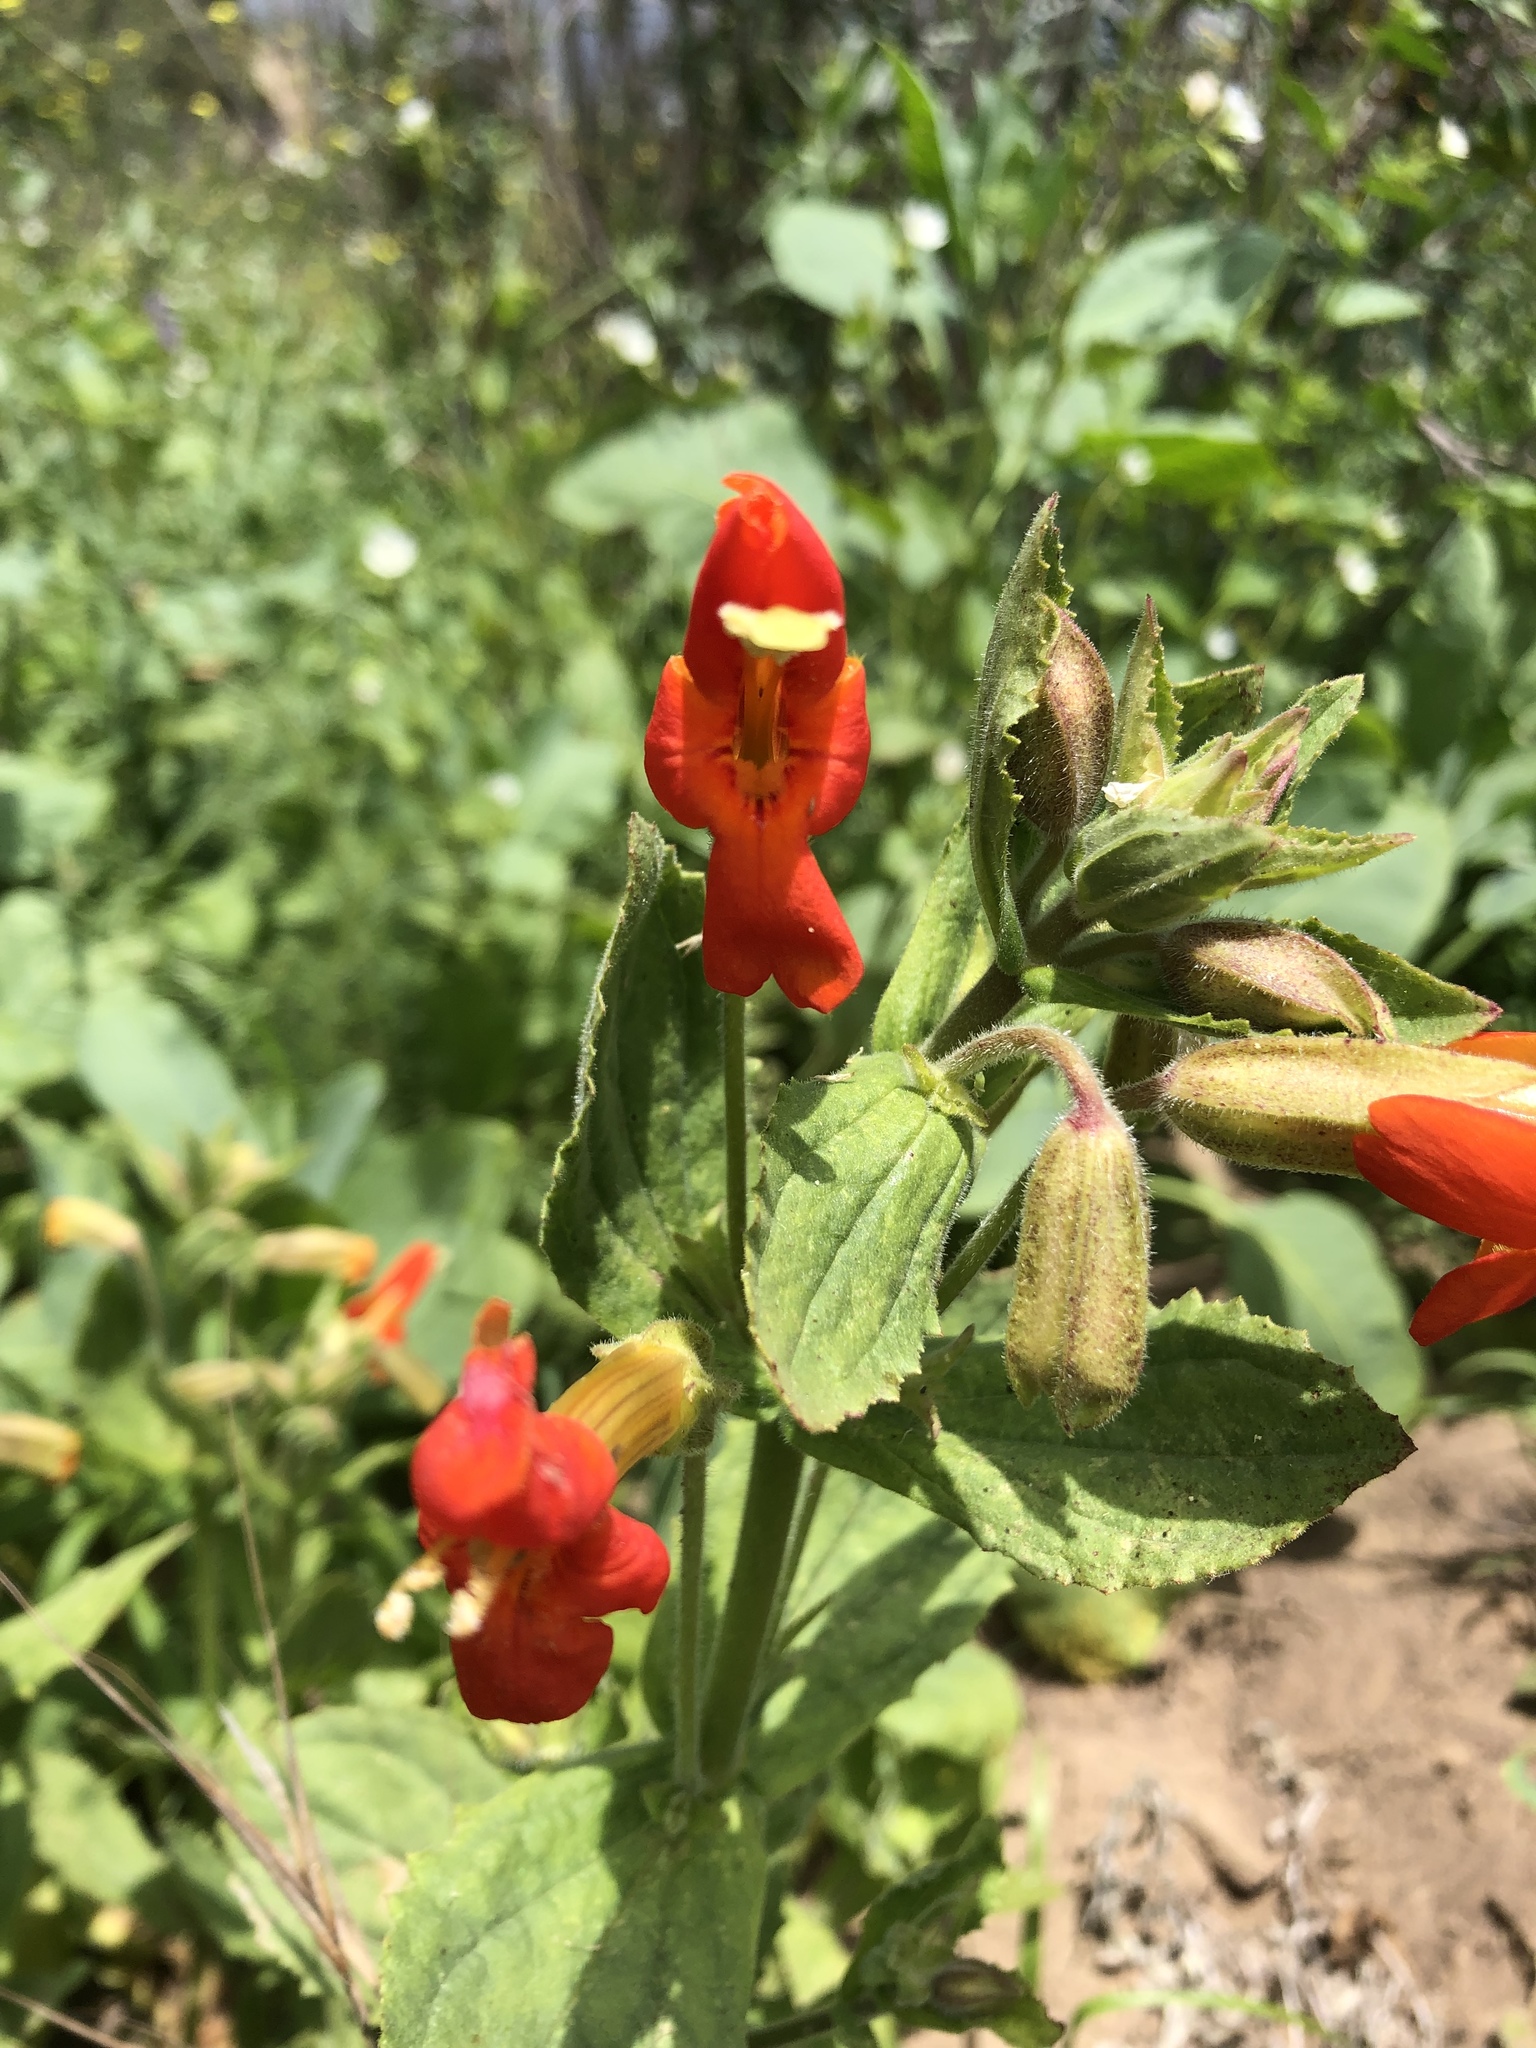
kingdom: Plantae
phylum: Tracheophyta
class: Magnoliopsida
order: Lamiales
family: Phrymaceae
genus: Erythranthe
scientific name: Erythranthe cardinalis
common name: Scarlet monkey-flower
